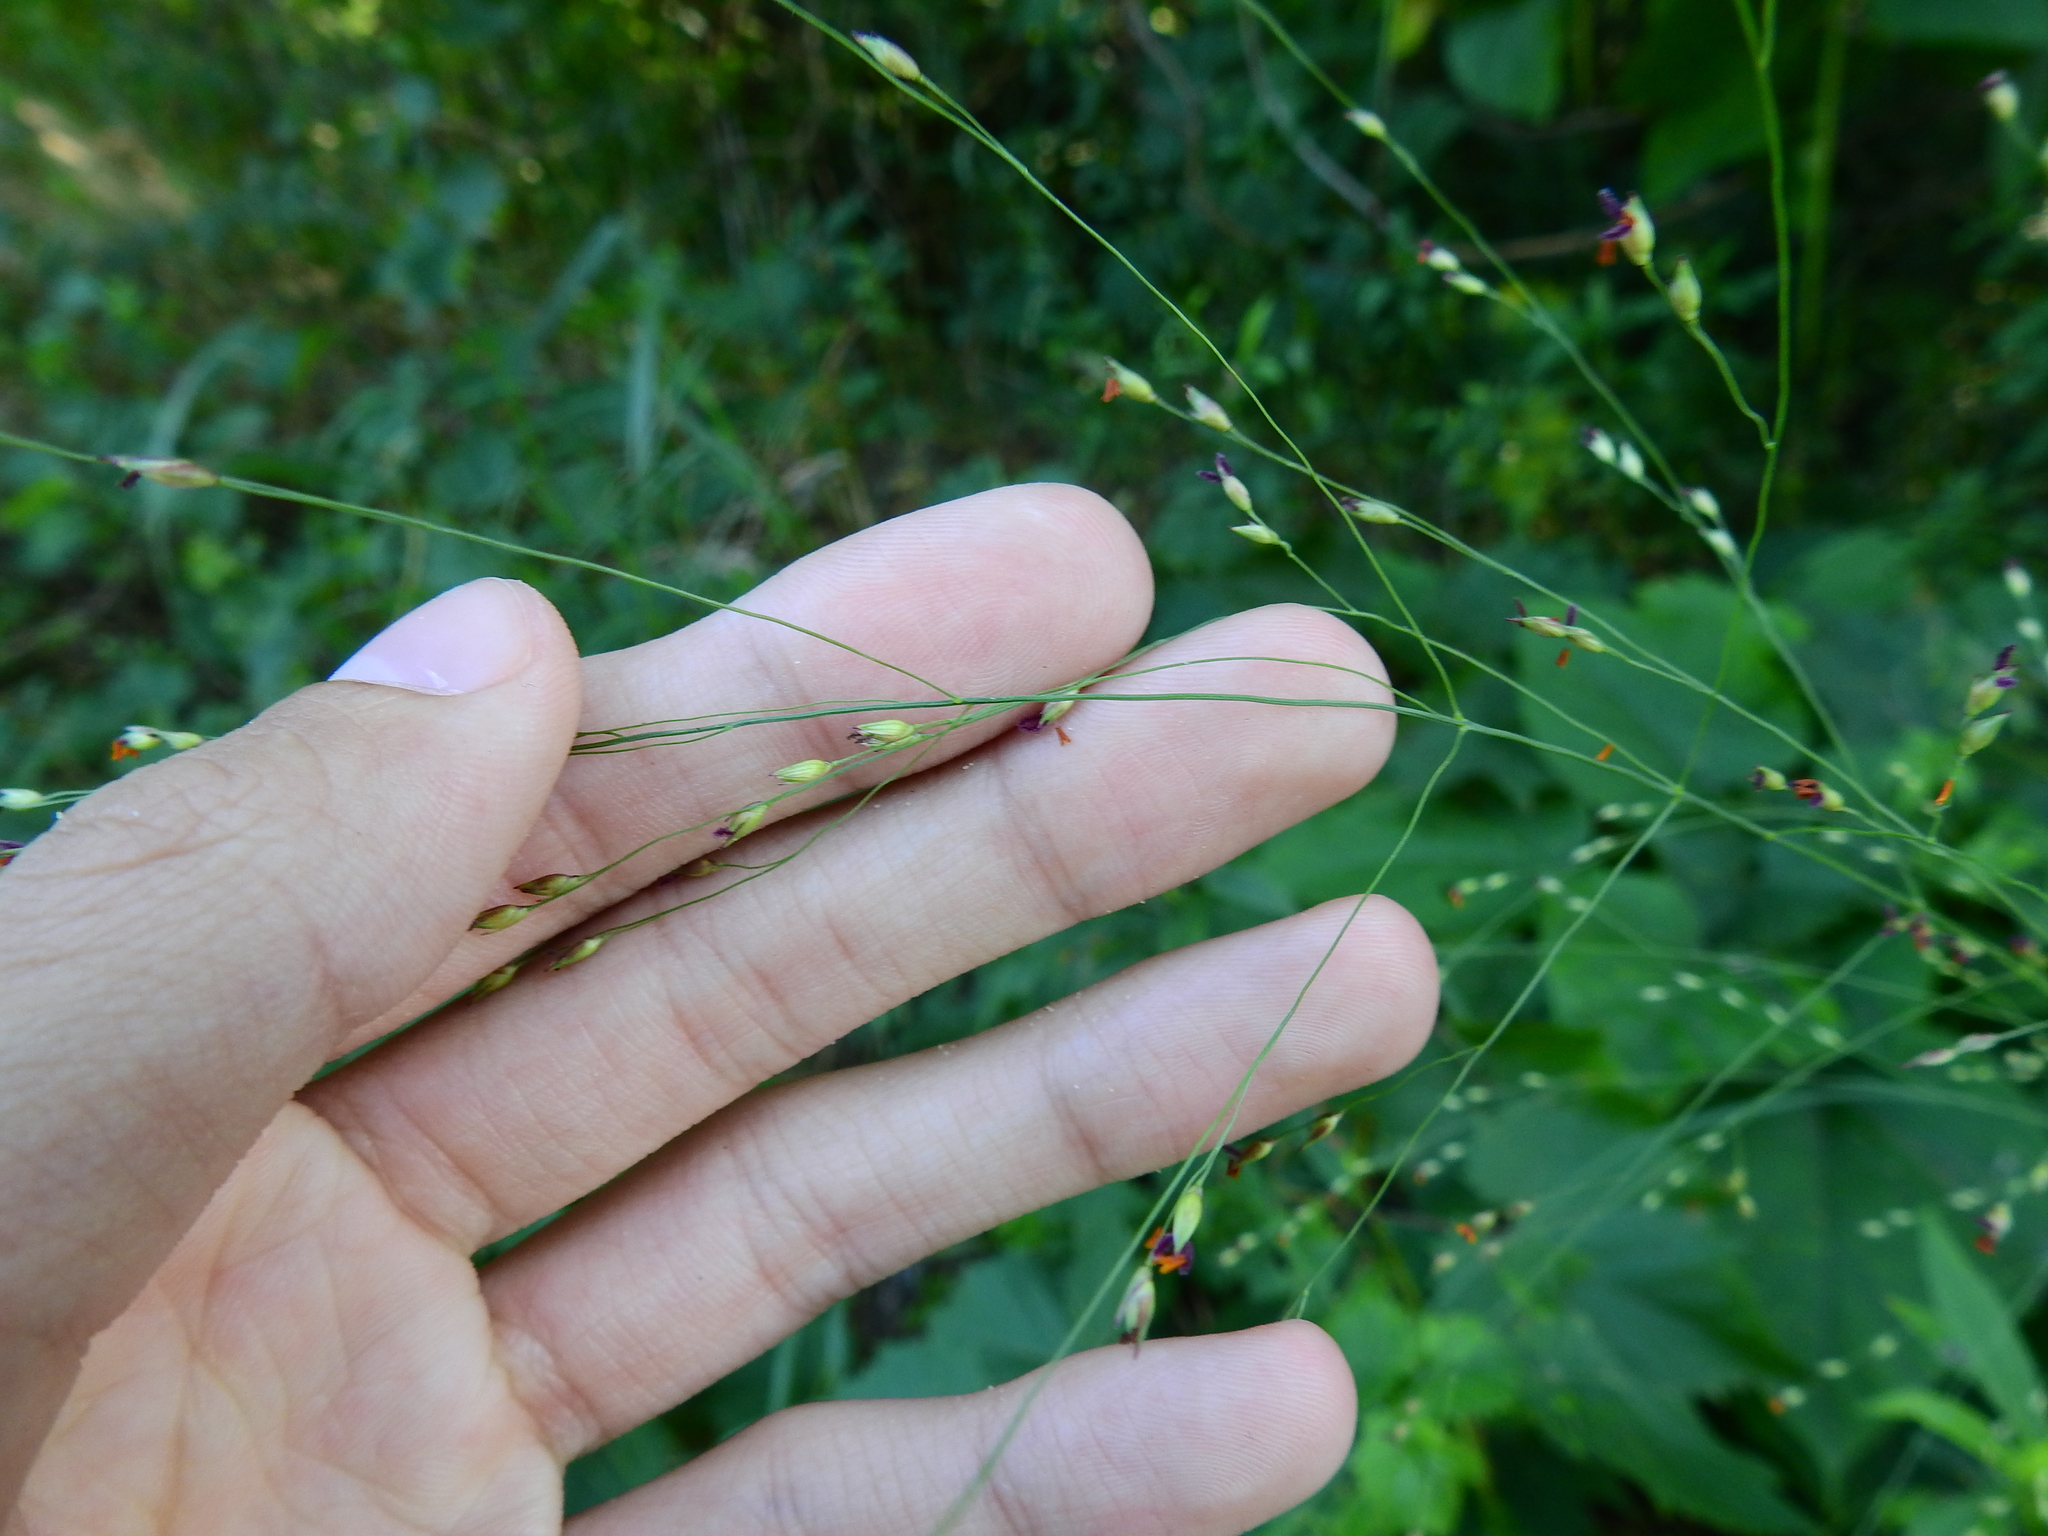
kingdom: Plantae
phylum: Tracheophyta
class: Liliopsida
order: Poales
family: Poaceae
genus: Panicum
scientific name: Panicum virgatum
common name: Switchgrass
